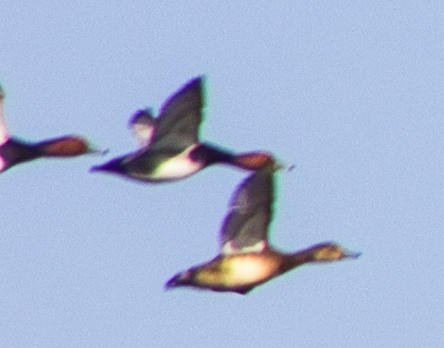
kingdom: Animalia
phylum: Chordata
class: Aves
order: Anseriformes
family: Anatidae
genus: Aythya
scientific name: Aythya americana
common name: Redhead
